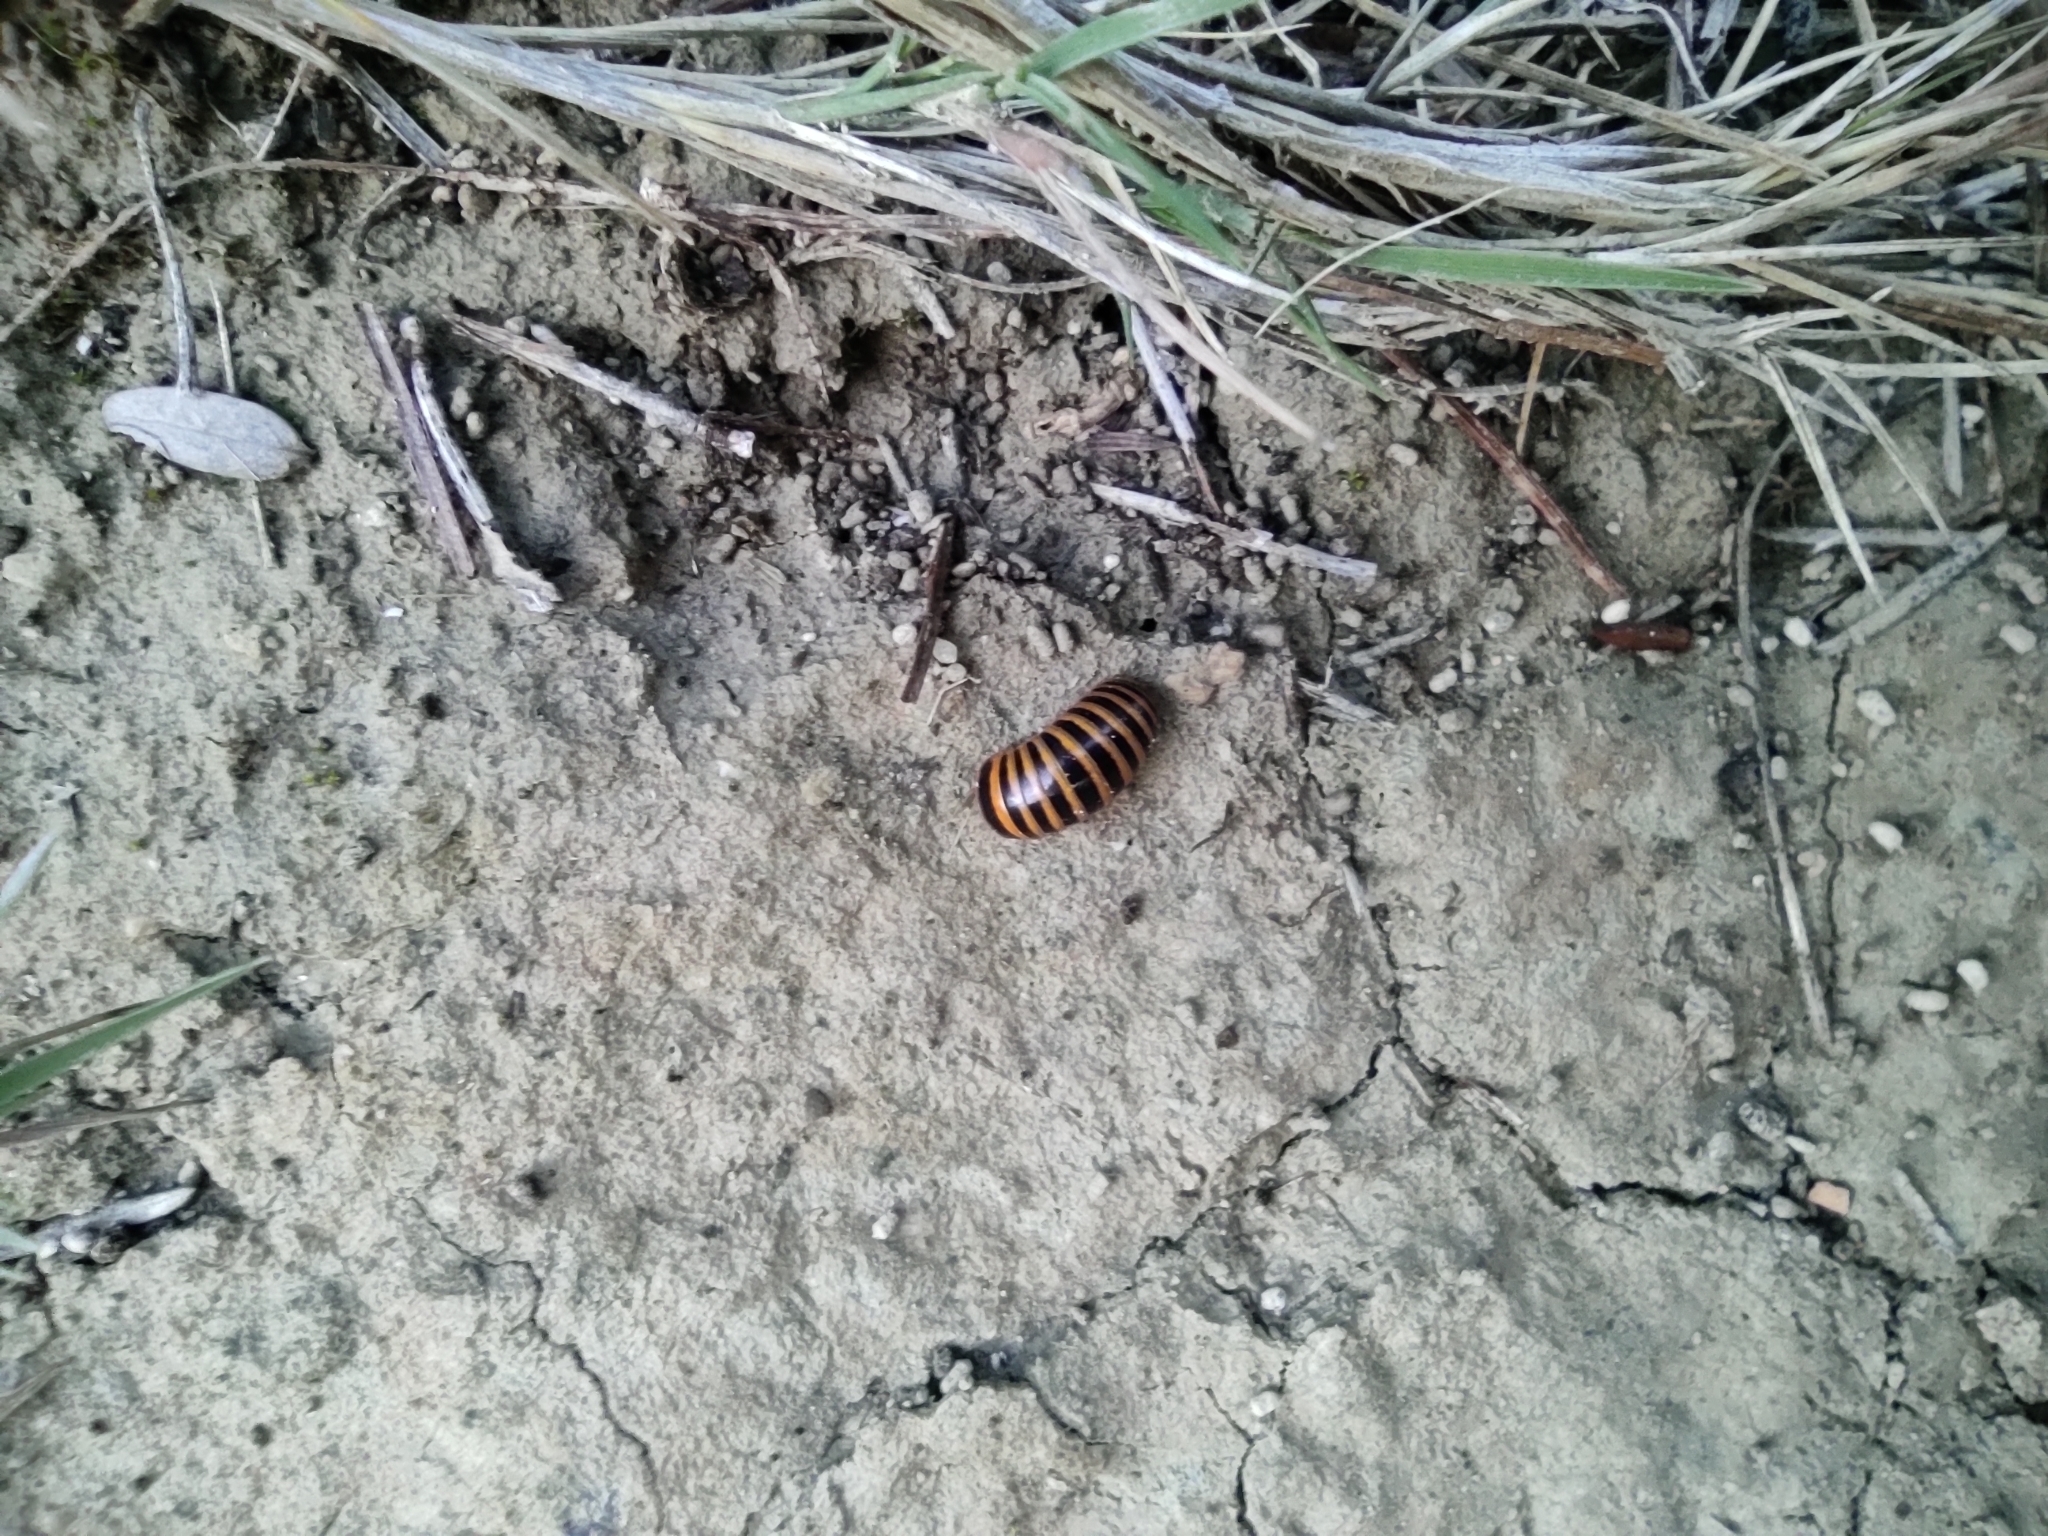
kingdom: Animalia
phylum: Arthropoda
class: Diplopoda
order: Glomerida
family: Glomeridae
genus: Glomeris
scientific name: Glomeris annulata
